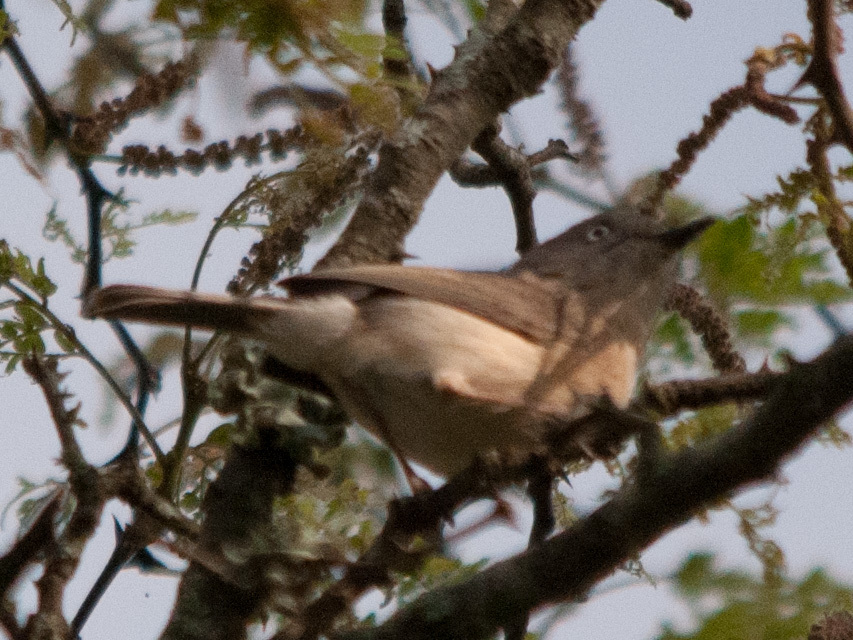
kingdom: Animalia
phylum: Chordata
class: Aves
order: Passeriformes
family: Vangidae
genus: Newtonia
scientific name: Newtonia brunneicauda
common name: Common newtonia
